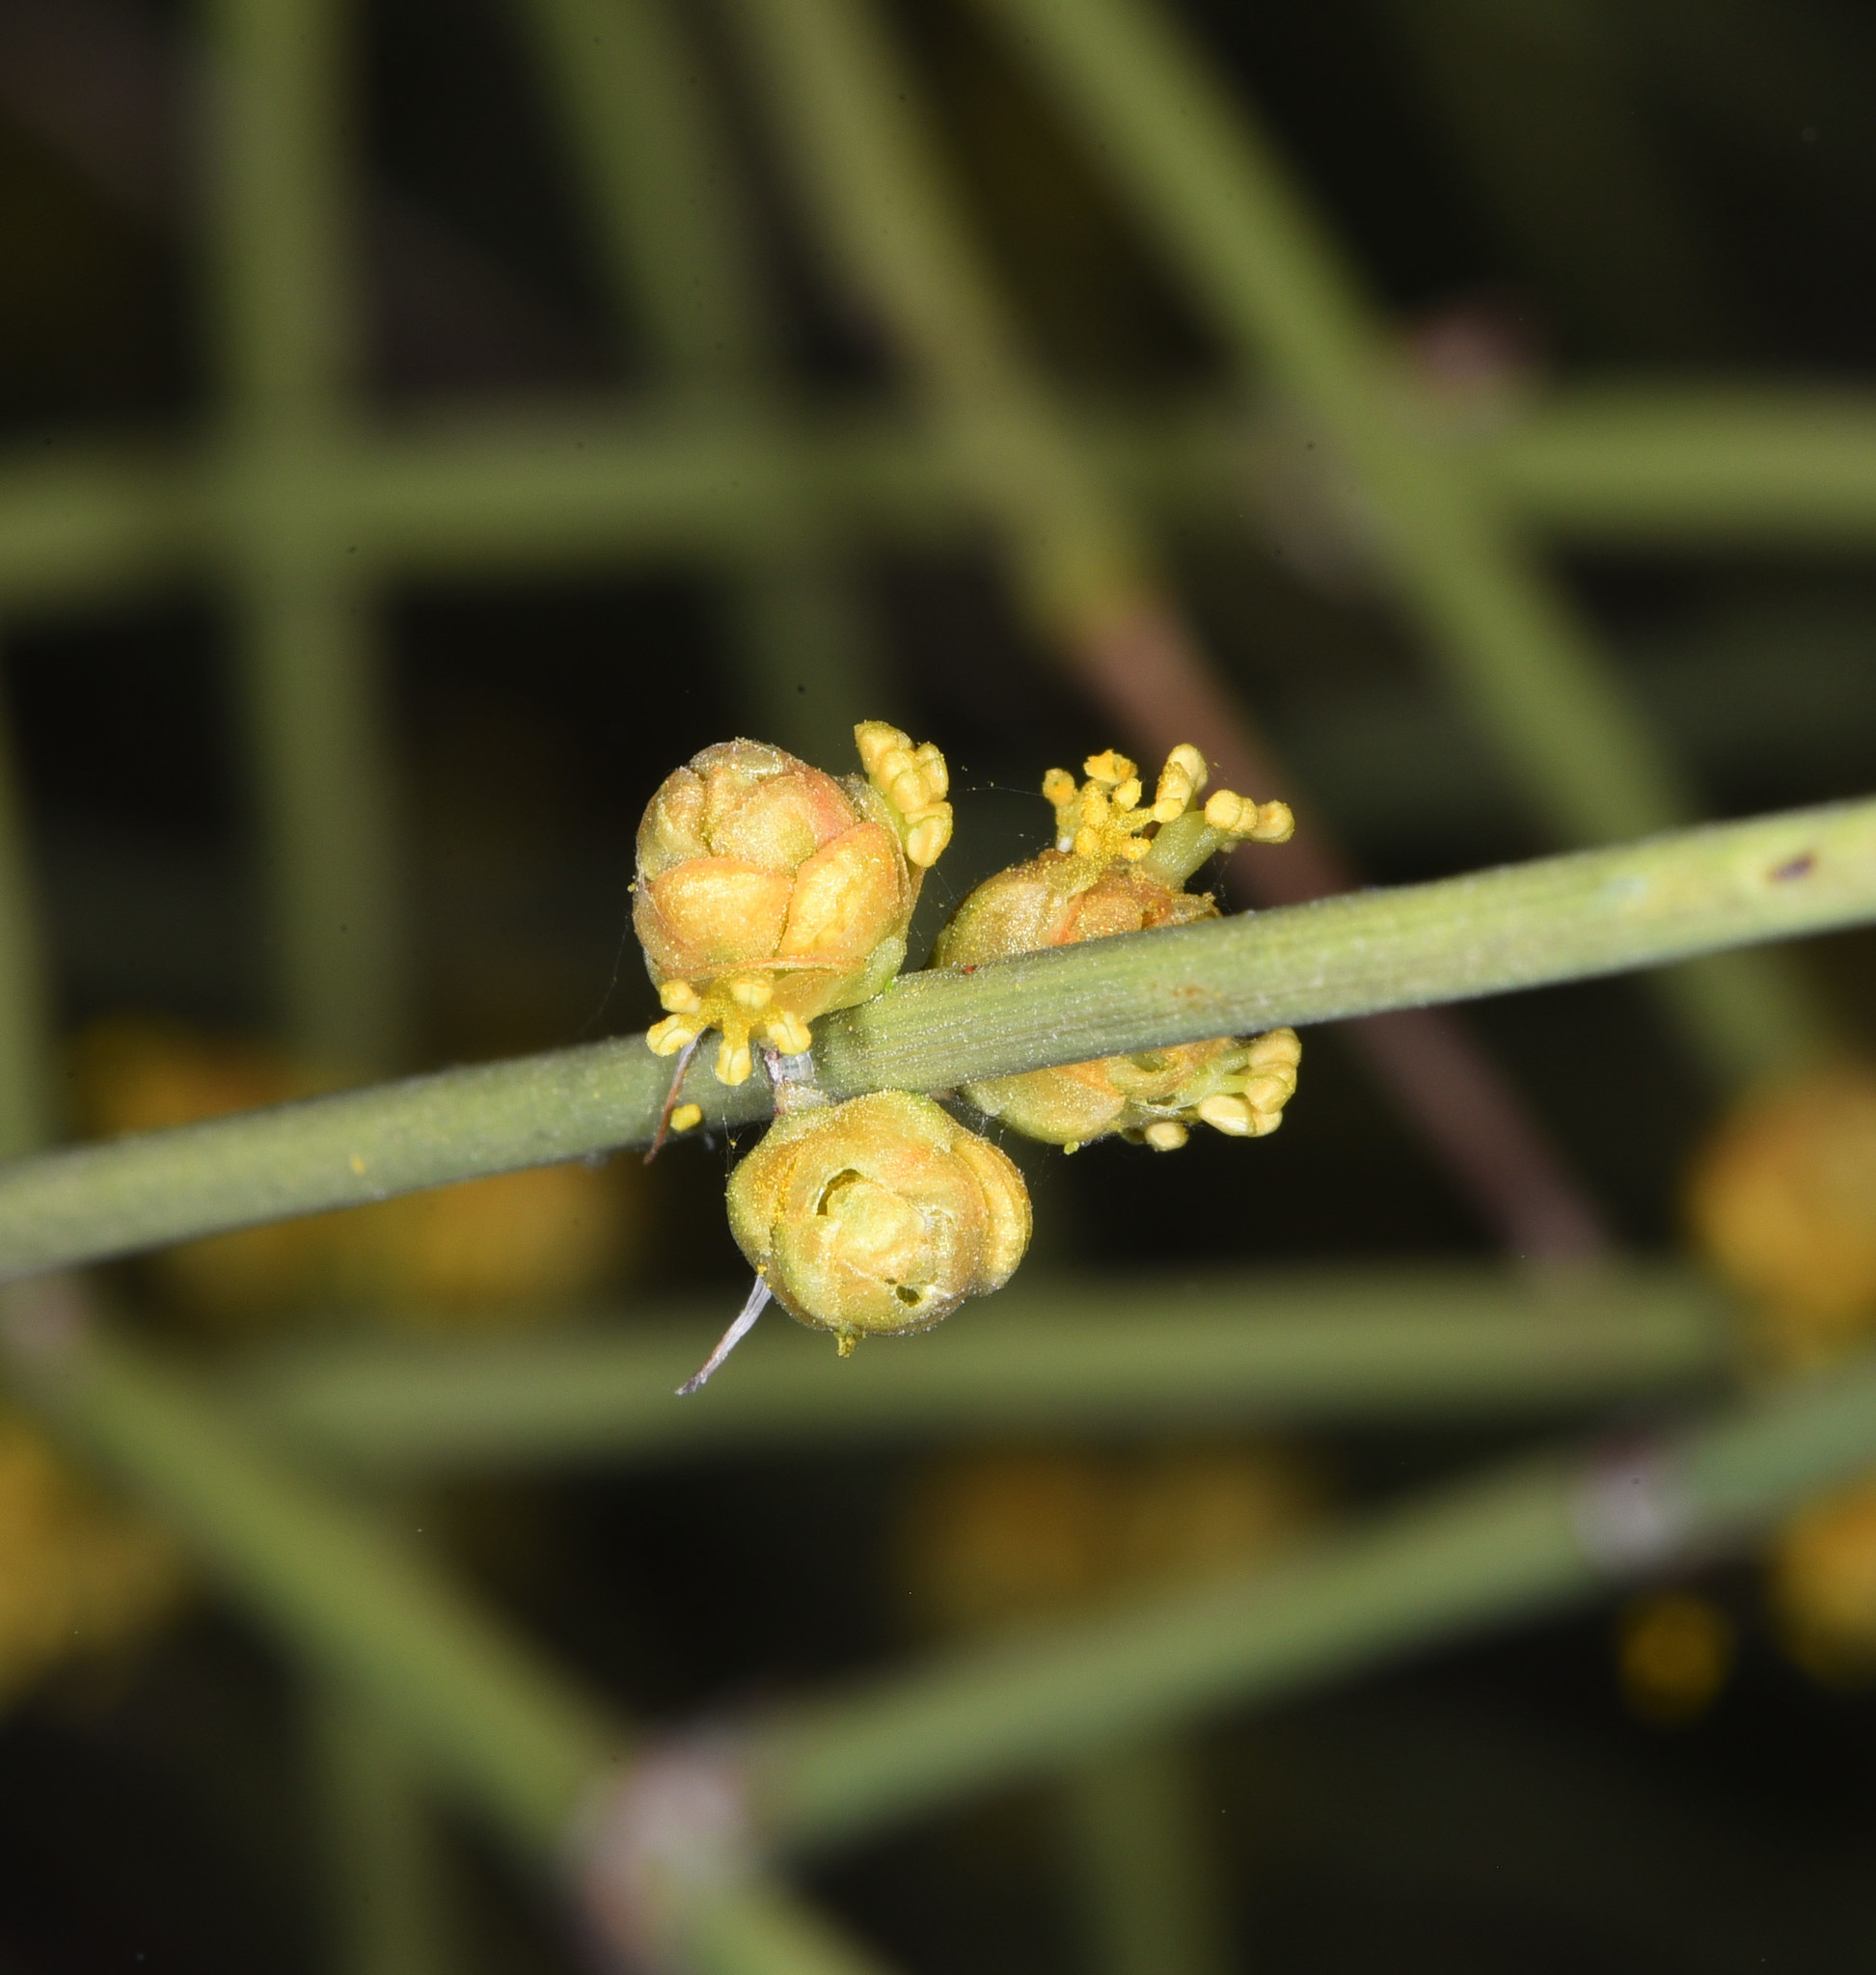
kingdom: Plantae
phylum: Tracheophyta
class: Gnetopsida
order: Ephedrales
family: Ephedraceae
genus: Ephedra
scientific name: Ephedra californica
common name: California ephedra
